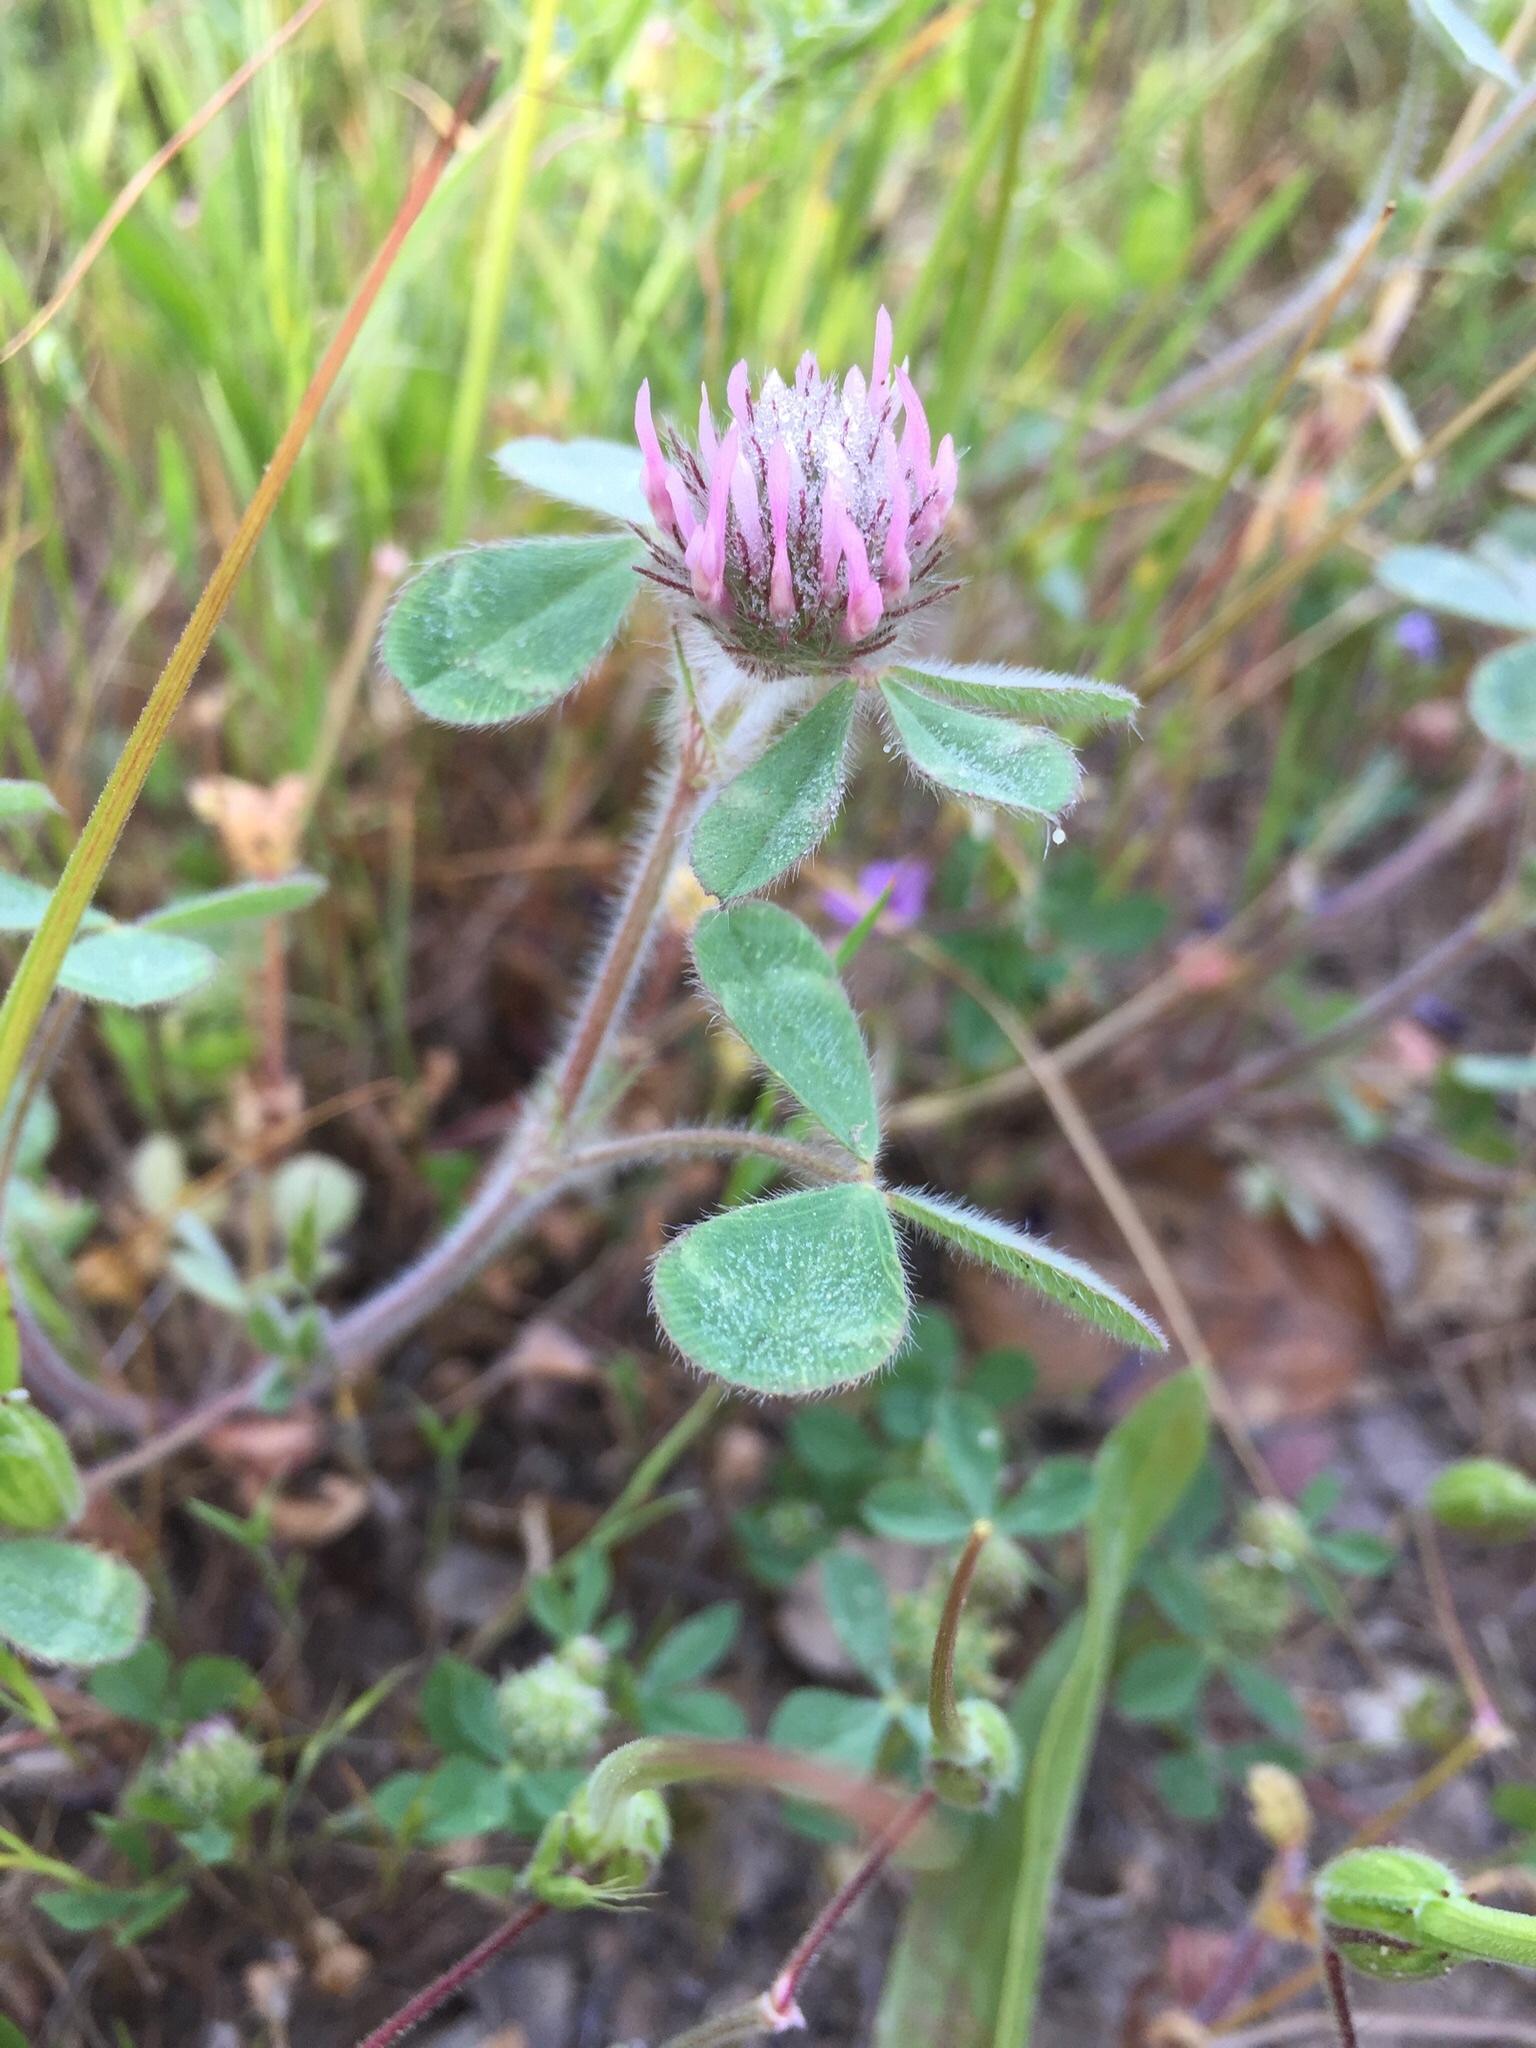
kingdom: Plantae
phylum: Tracheophyta
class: Magnoliopsida
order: Fabales
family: Fabaceae
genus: Trifolium
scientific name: Trifolium hirtum
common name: Rose clover
